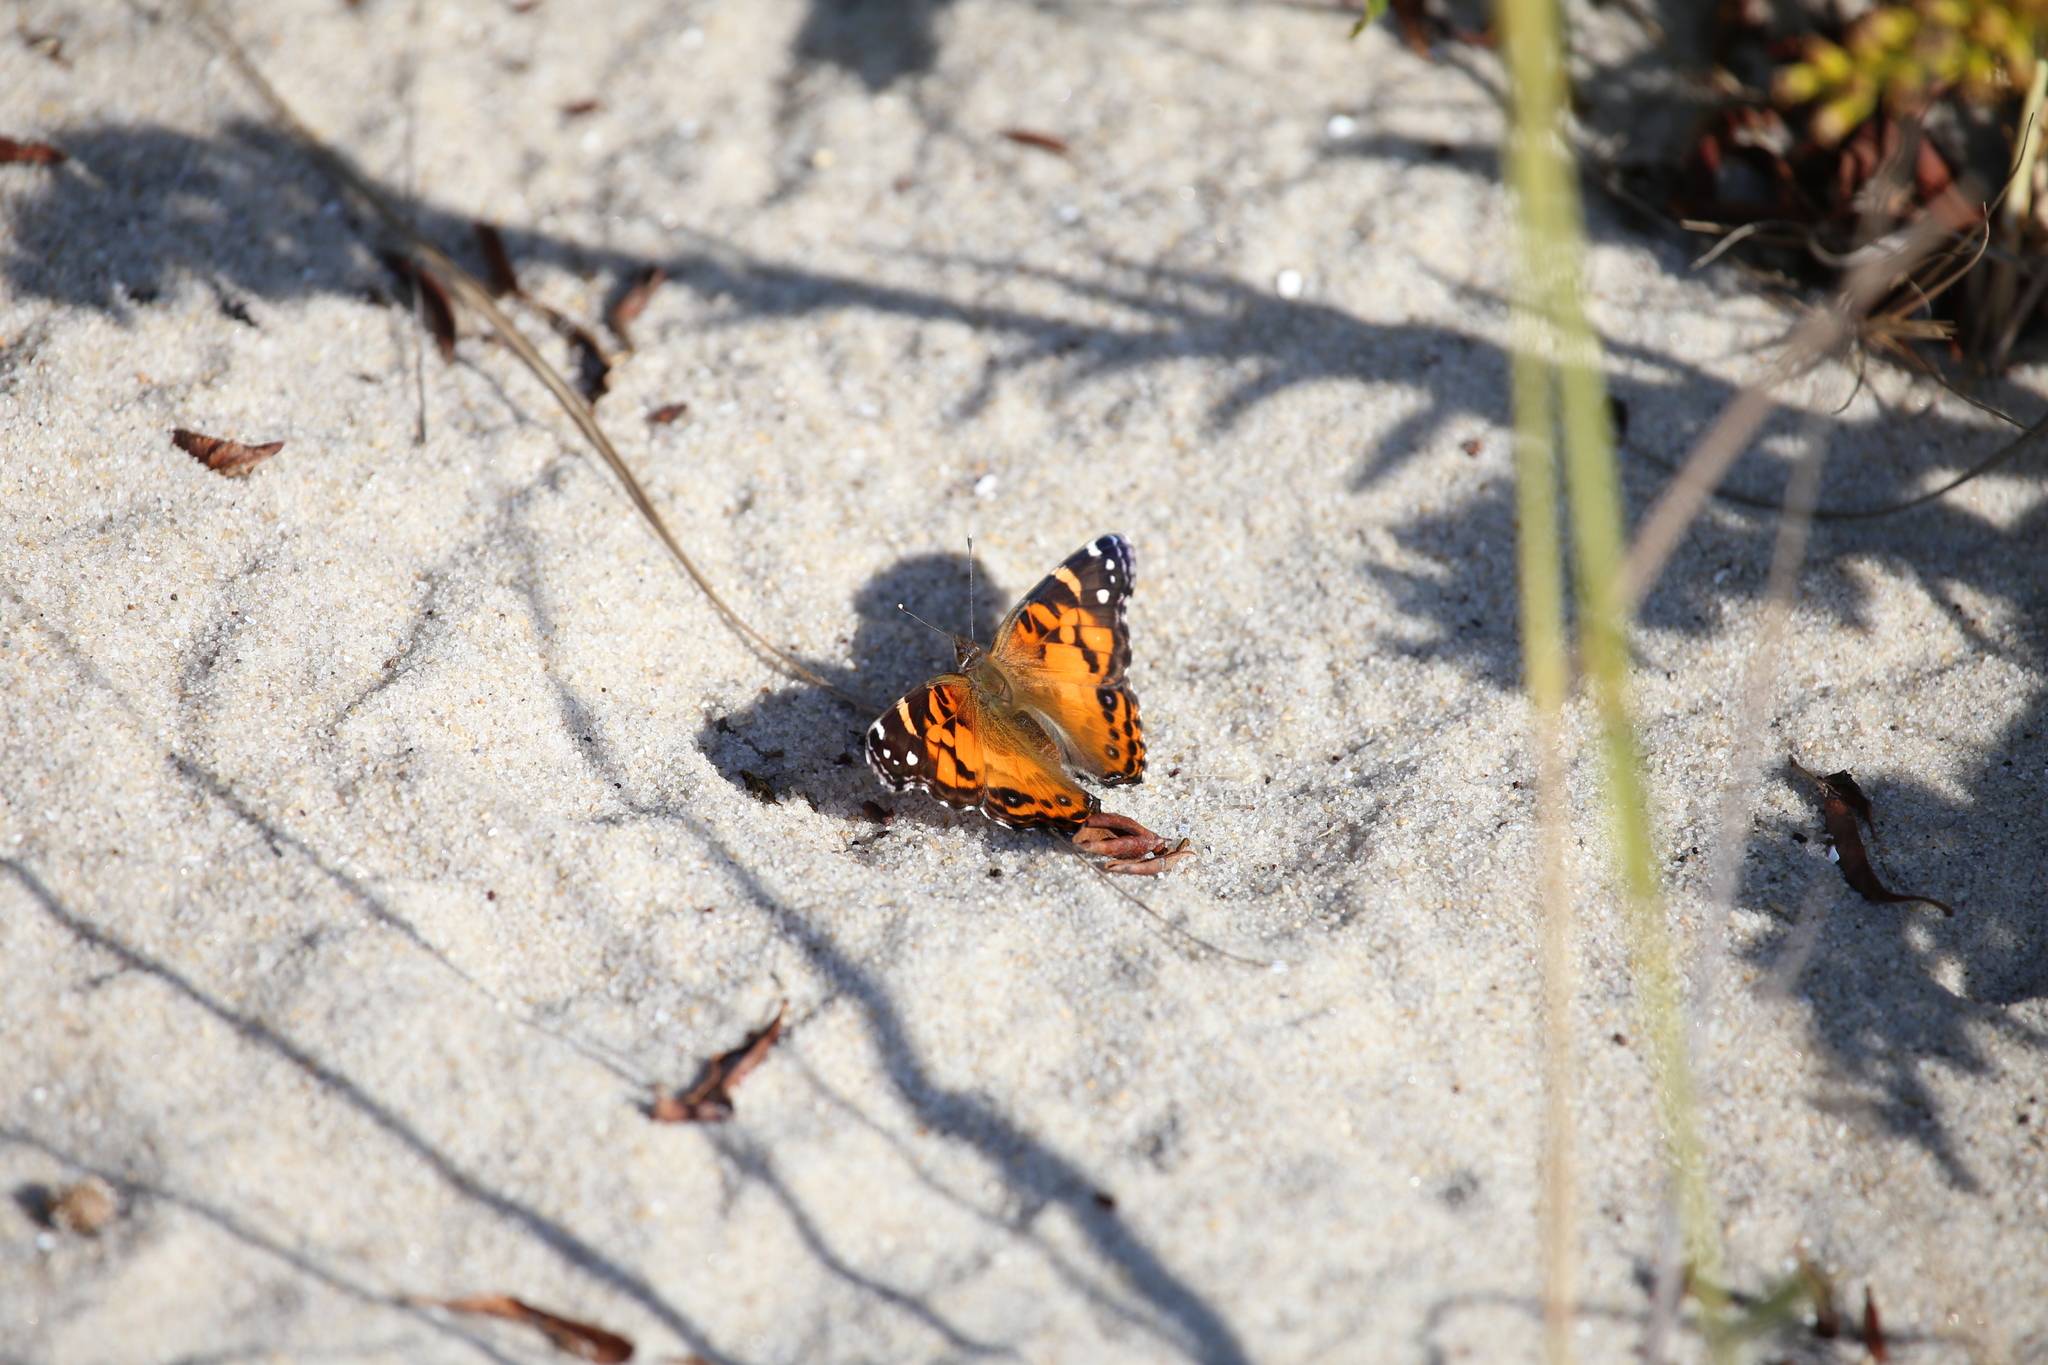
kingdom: Animalia
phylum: Arthropoda
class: Insecta
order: Lepidoptera
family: Nymphalidae
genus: Vanessa
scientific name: Vanessa virginiensis
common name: American lady
